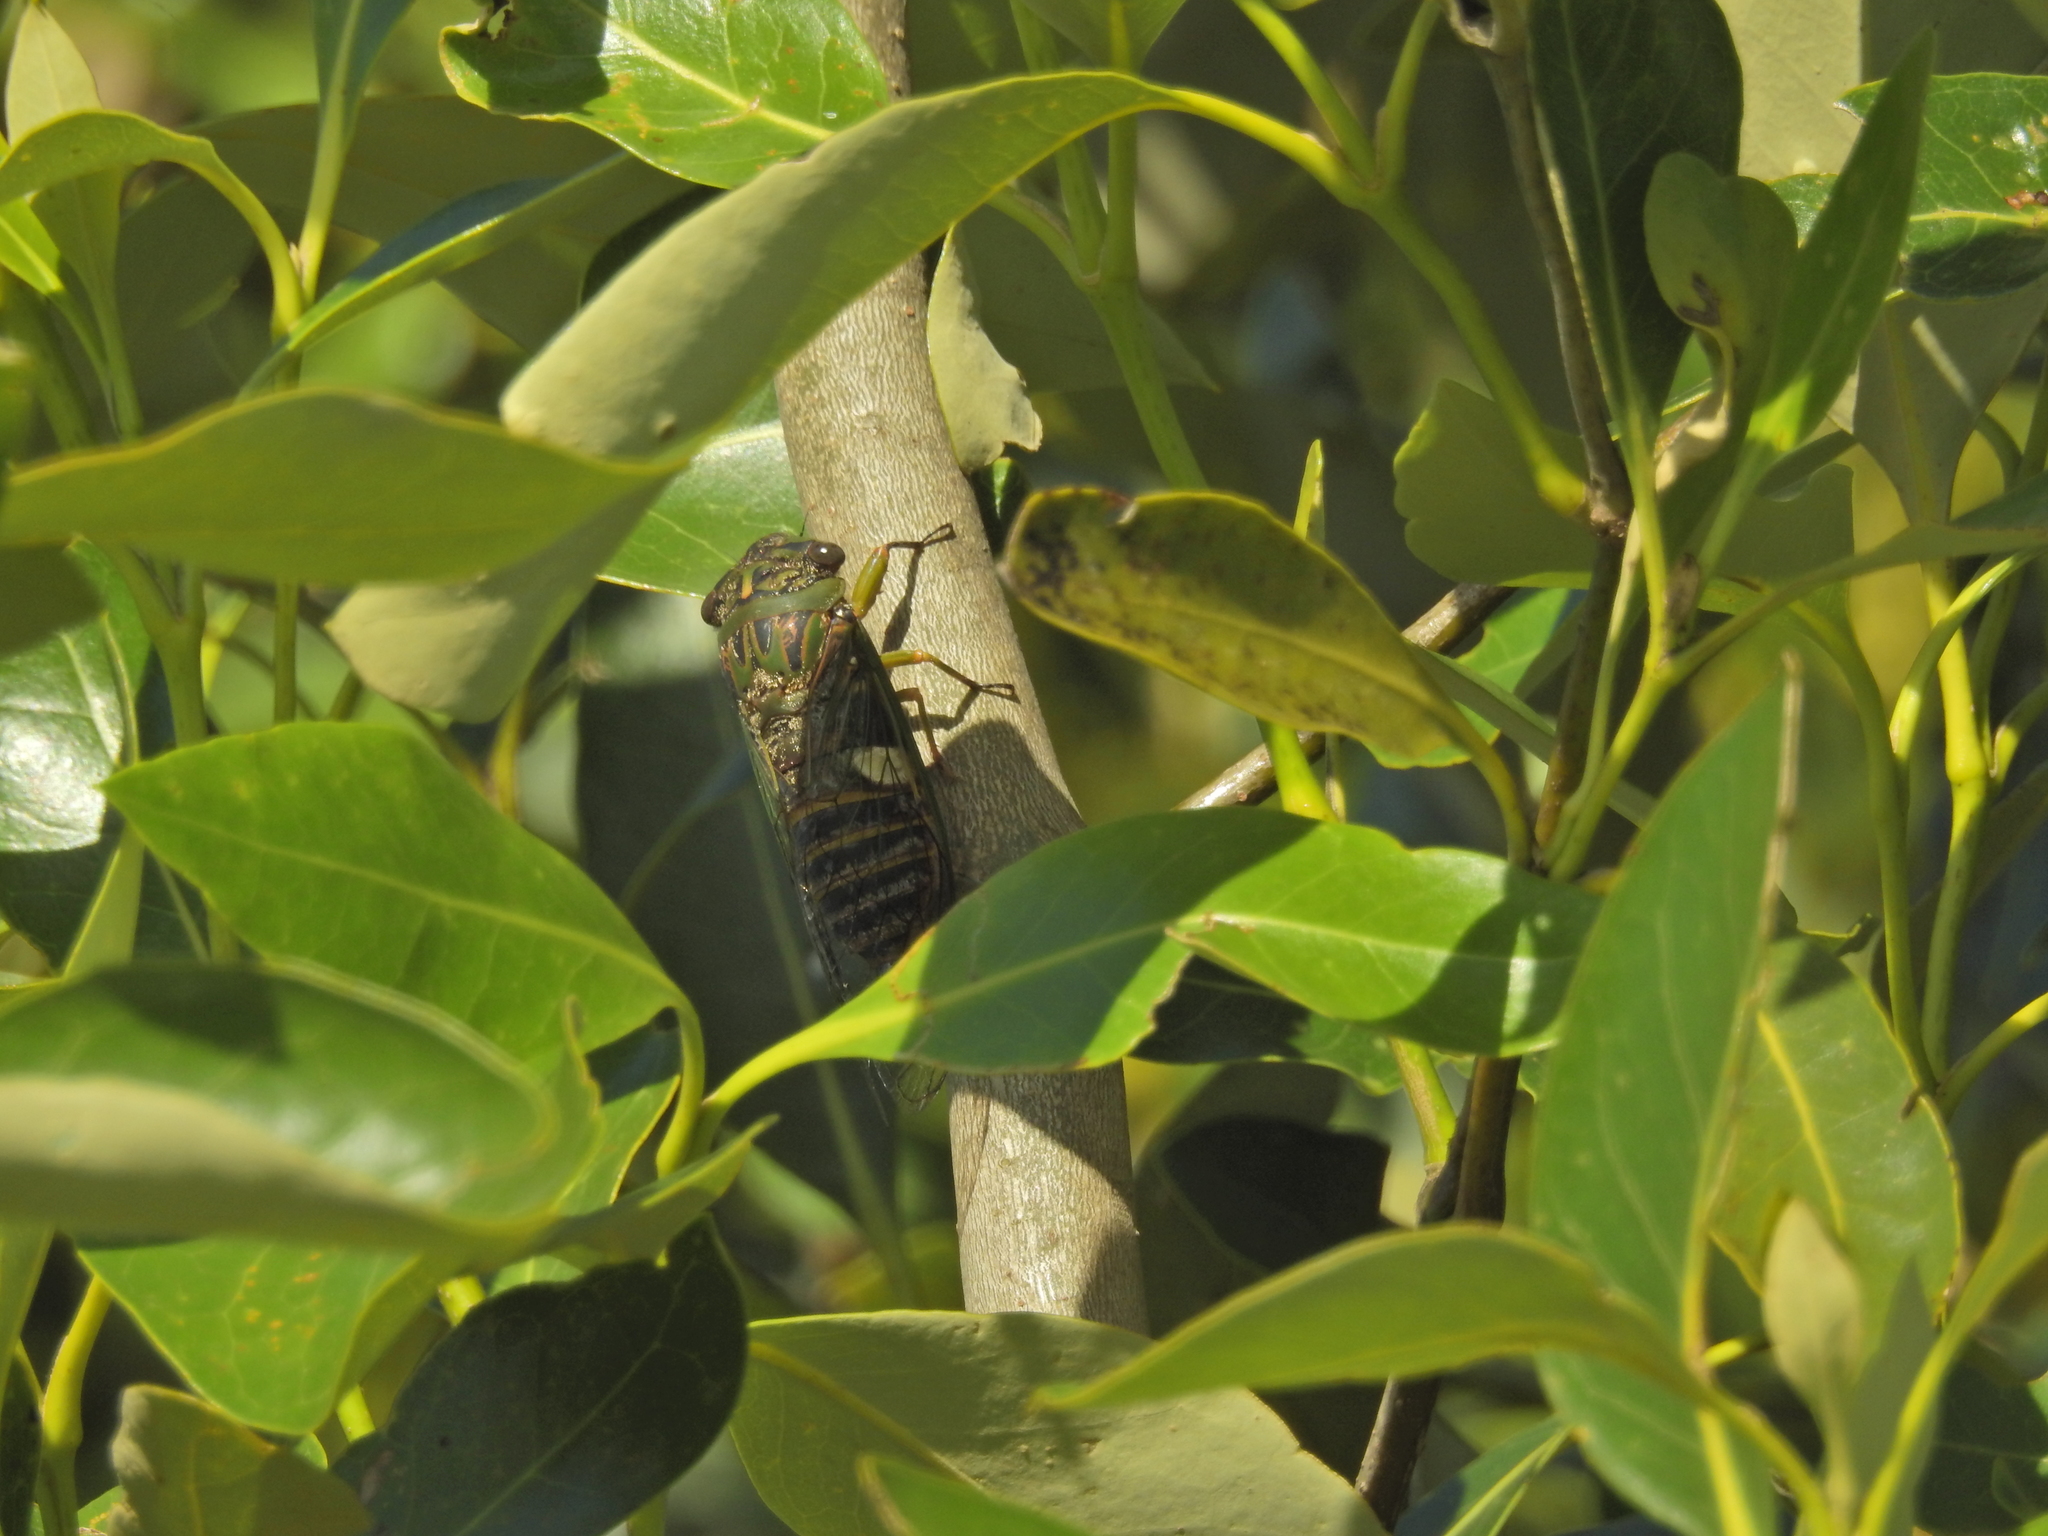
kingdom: Animalia
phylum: Arthropoda
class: Insecta
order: Hemiptera
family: Cicadidae
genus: Psaltoda
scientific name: Psaltoda plaga
